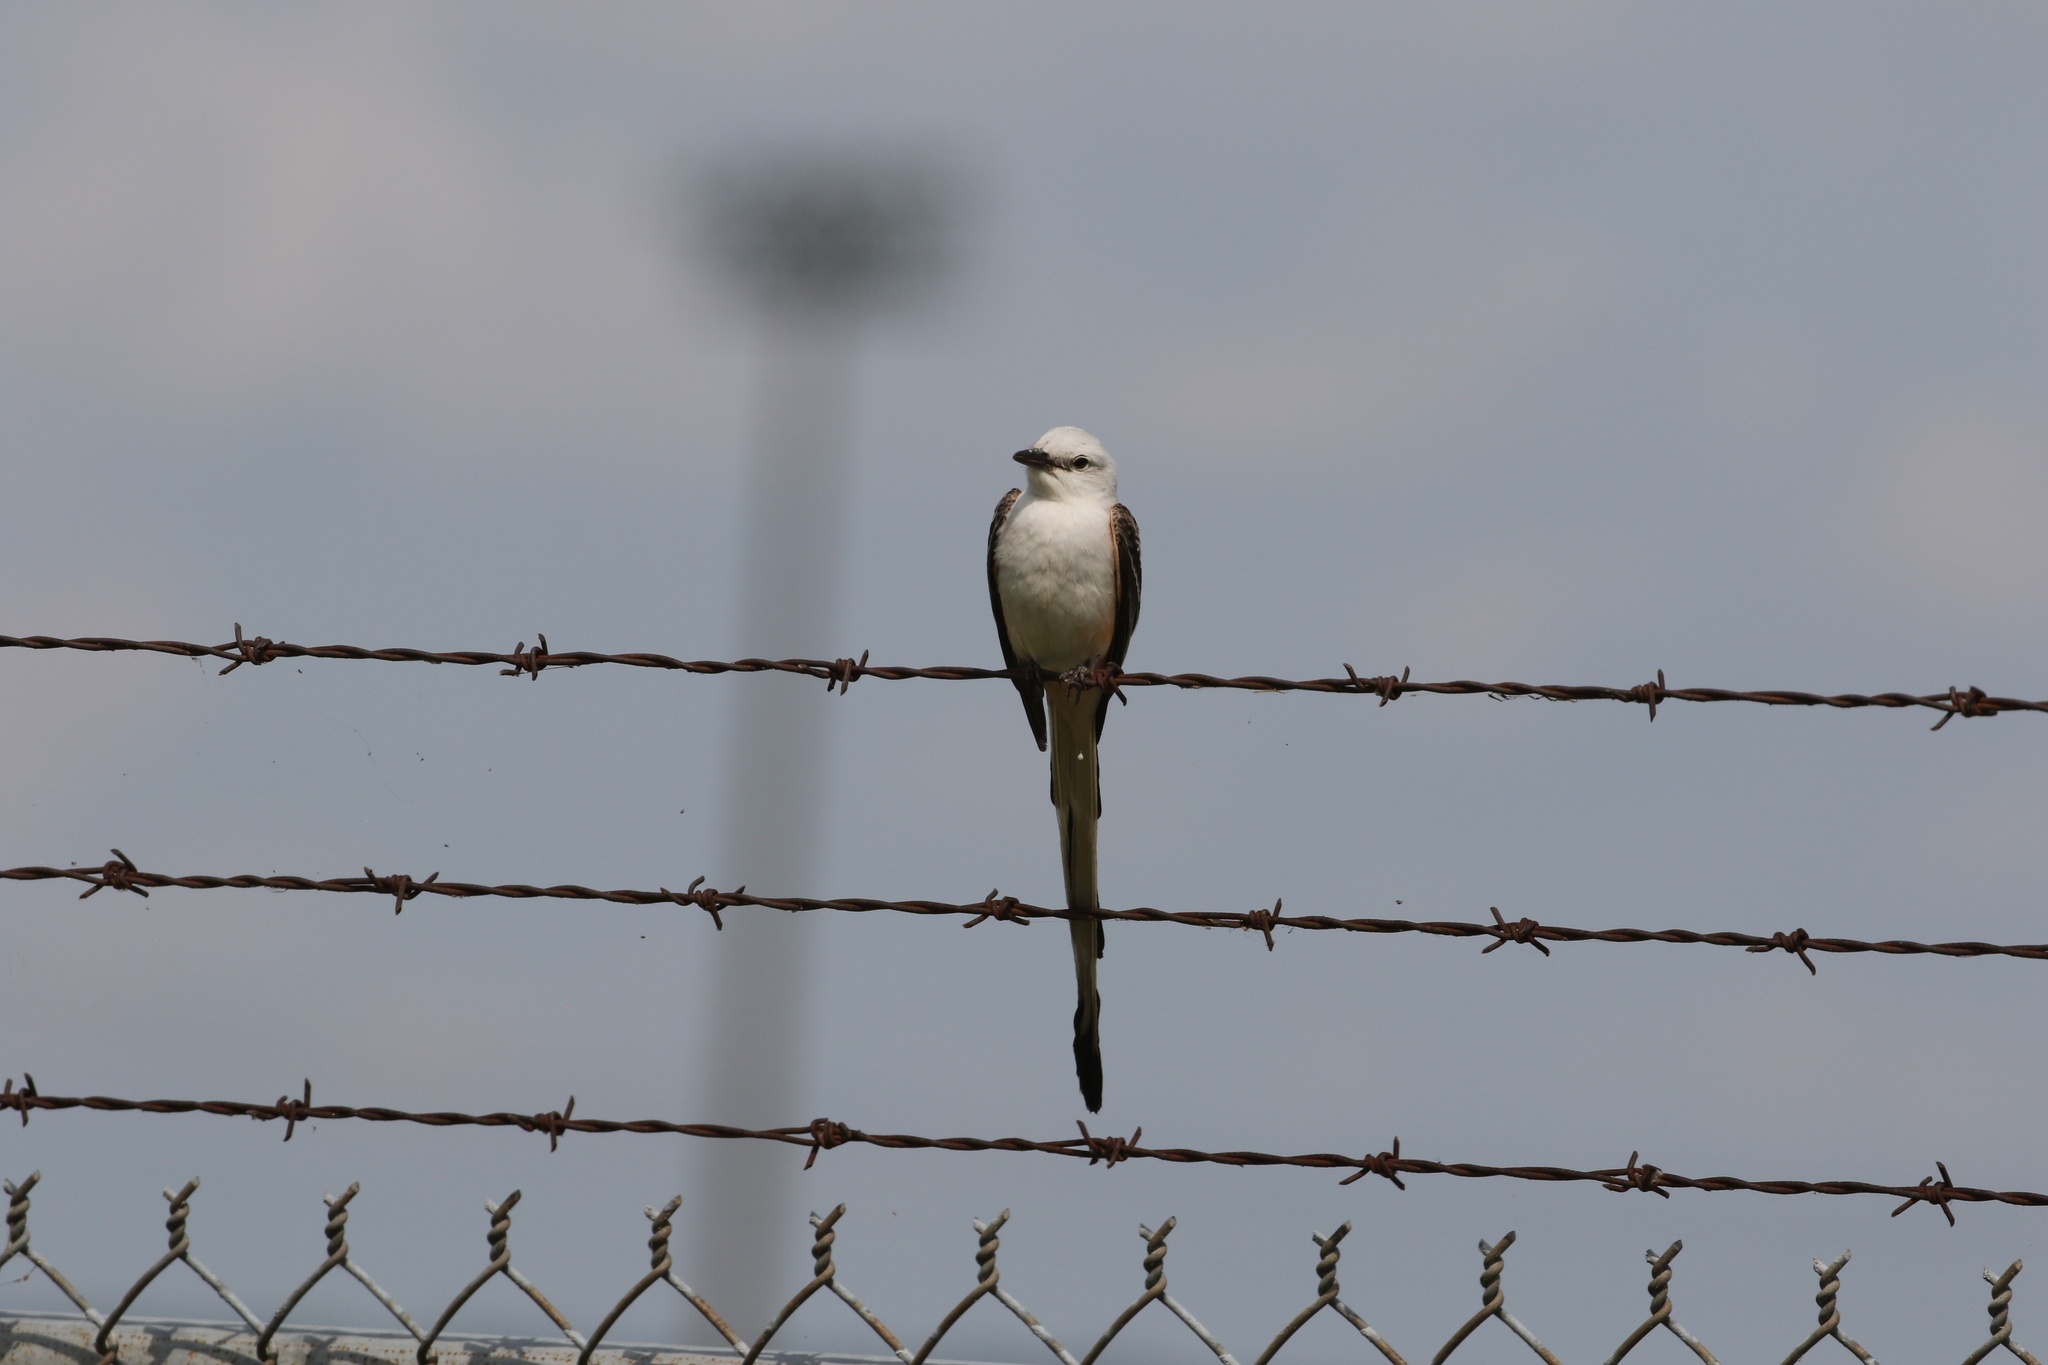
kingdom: Animalia
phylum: Chordata
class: Aves
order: Passeriformes
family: Tyrannidae
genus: Tyrannus
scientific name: Tyrannus forficatus
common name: Scissor-tailed flycatcher
